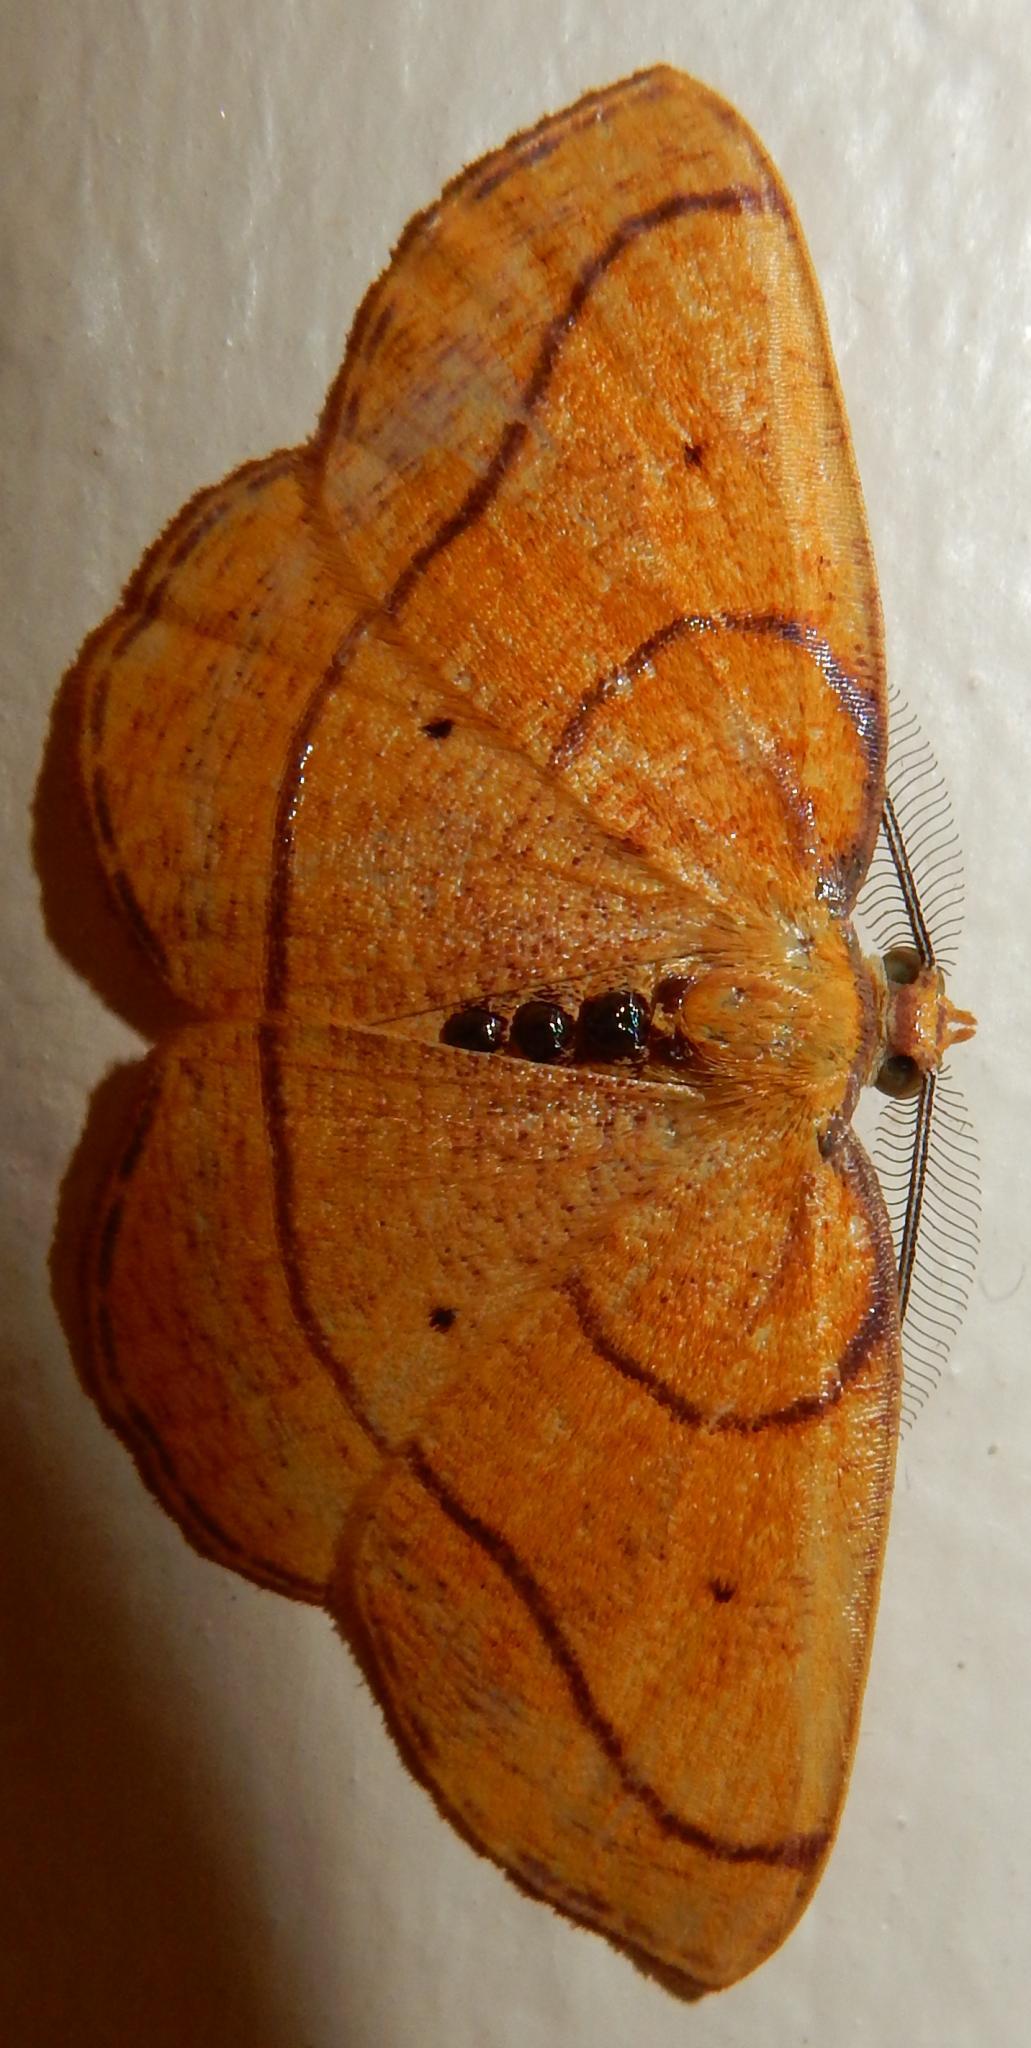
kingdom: Animalia
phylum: Arthropoda
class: Insecta
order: Lepidoptera
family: Geometridae
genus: Oaracta
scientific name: Oaracta auricincta
